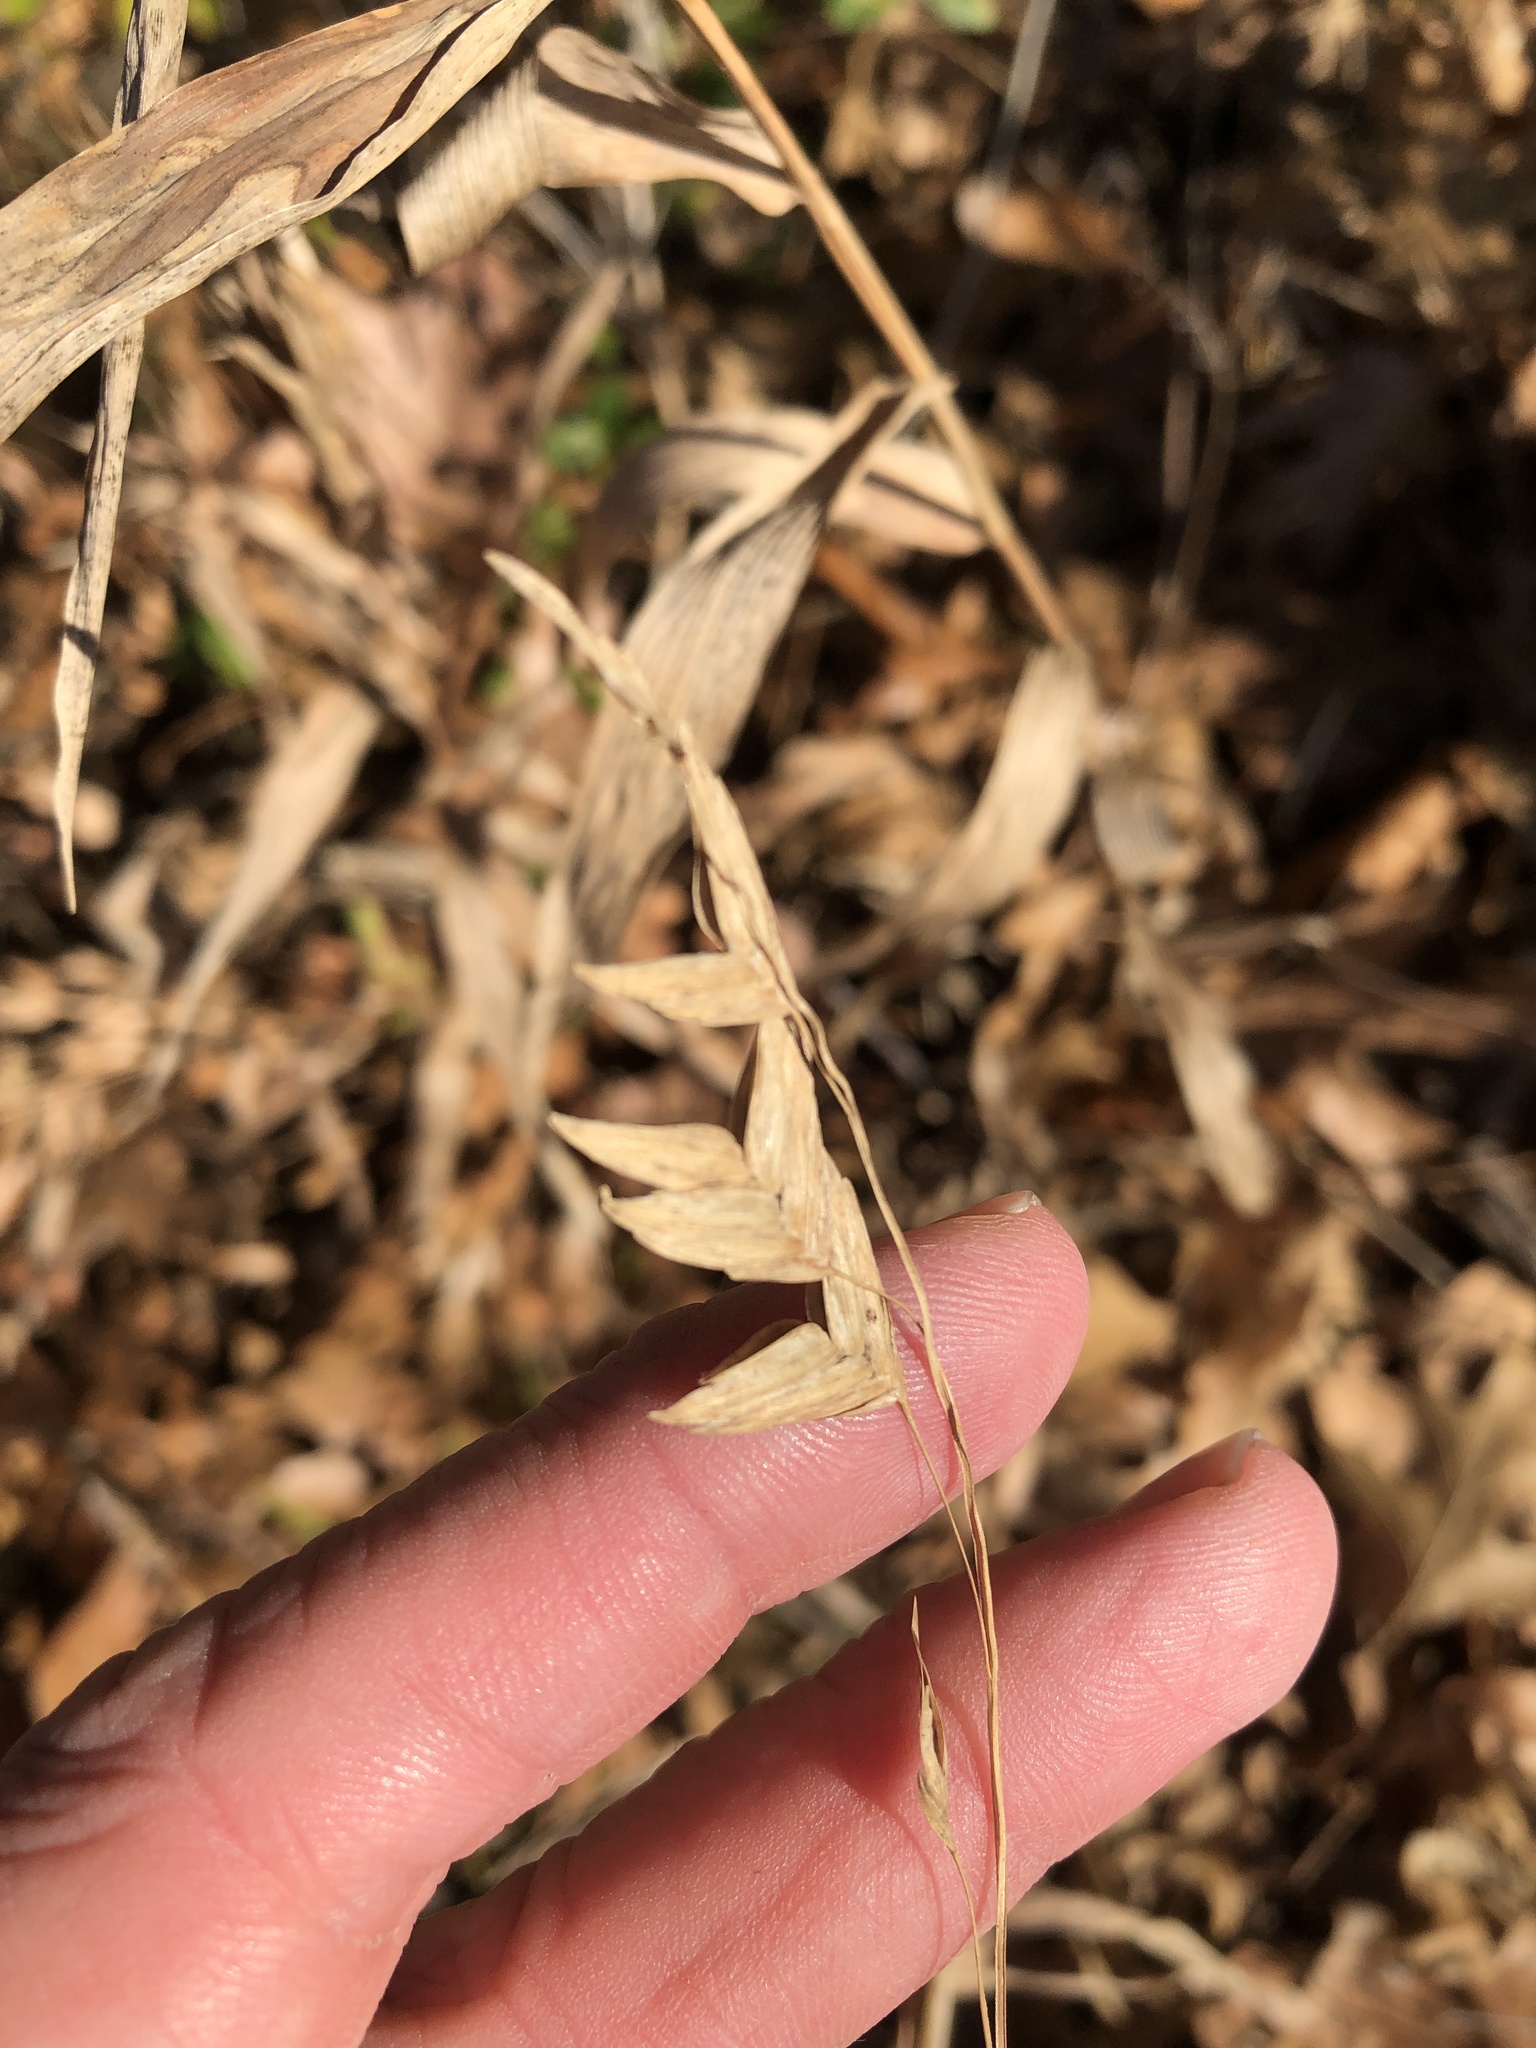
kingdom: Plantae
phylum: Tracheophyta
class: Liliopsida
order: Poales
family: Poaceae
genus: Chasmanthium
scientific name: Chasmanthium latifolium
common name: Broad-leaved chasmanthium
